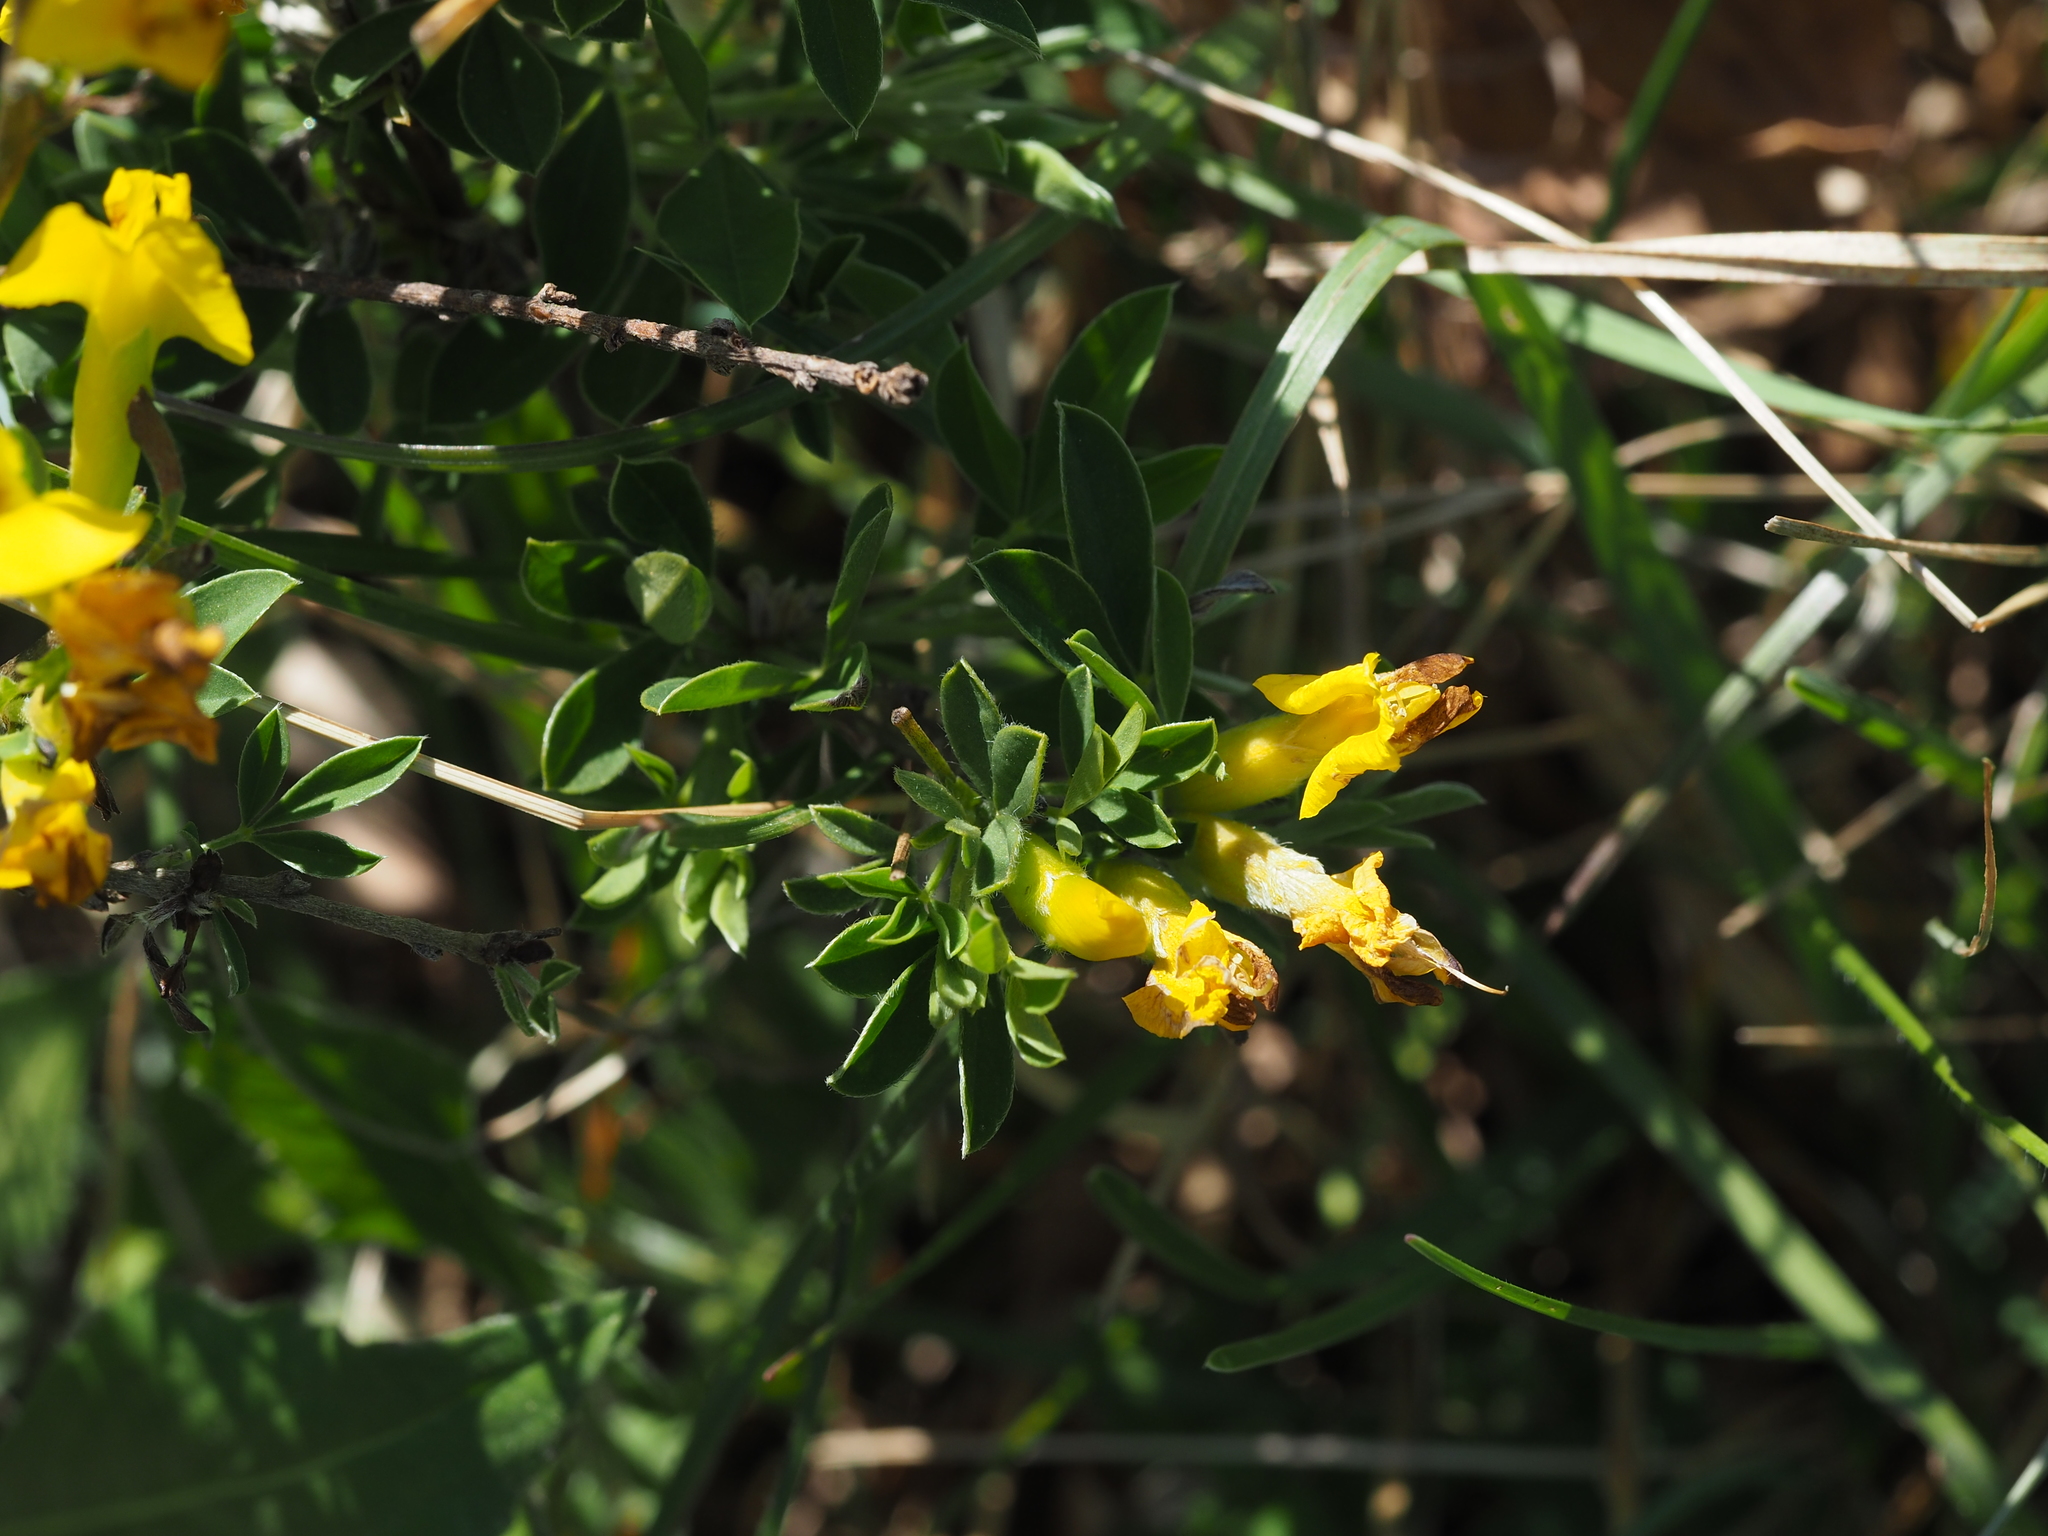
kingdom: Plantae
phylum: Tracheophyta
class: Magnoliopsida
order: Fabales
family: Fabaceae
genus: Chamaecytisus
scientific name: Chamaecytisus ratisbonensis
